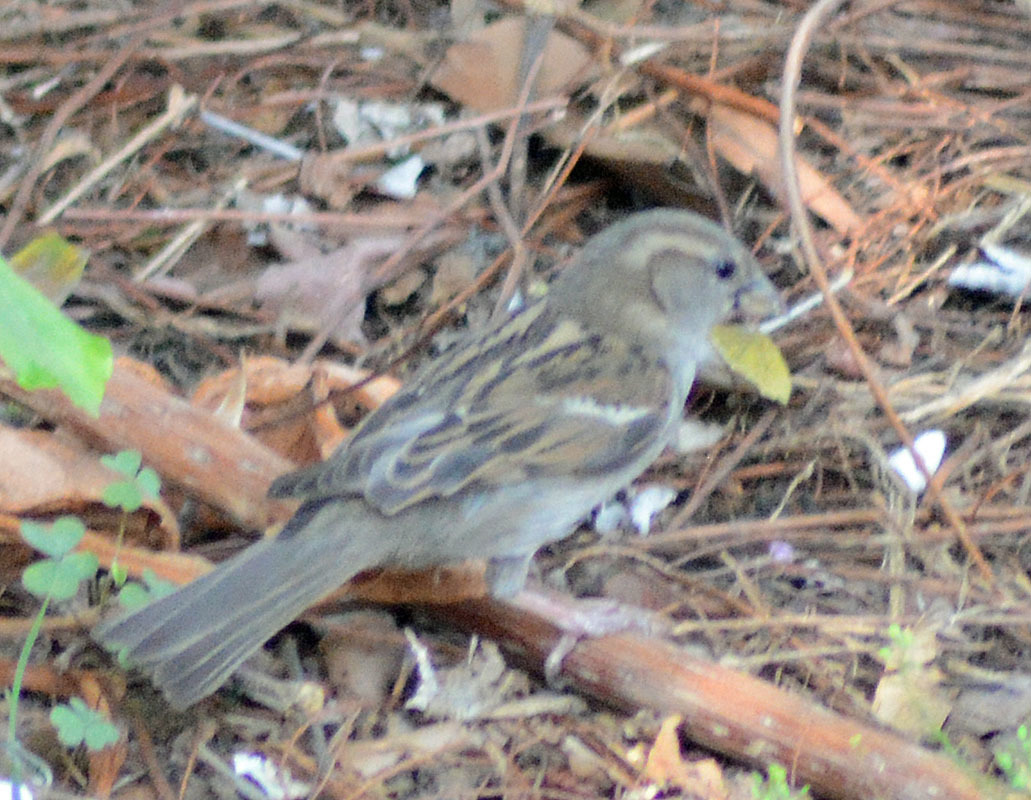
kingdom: Animalia
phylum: Chordata
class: Aves
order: Passeriformes
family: Passeridae
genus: Passer
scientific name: Passer domesticus
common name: House sparrow
